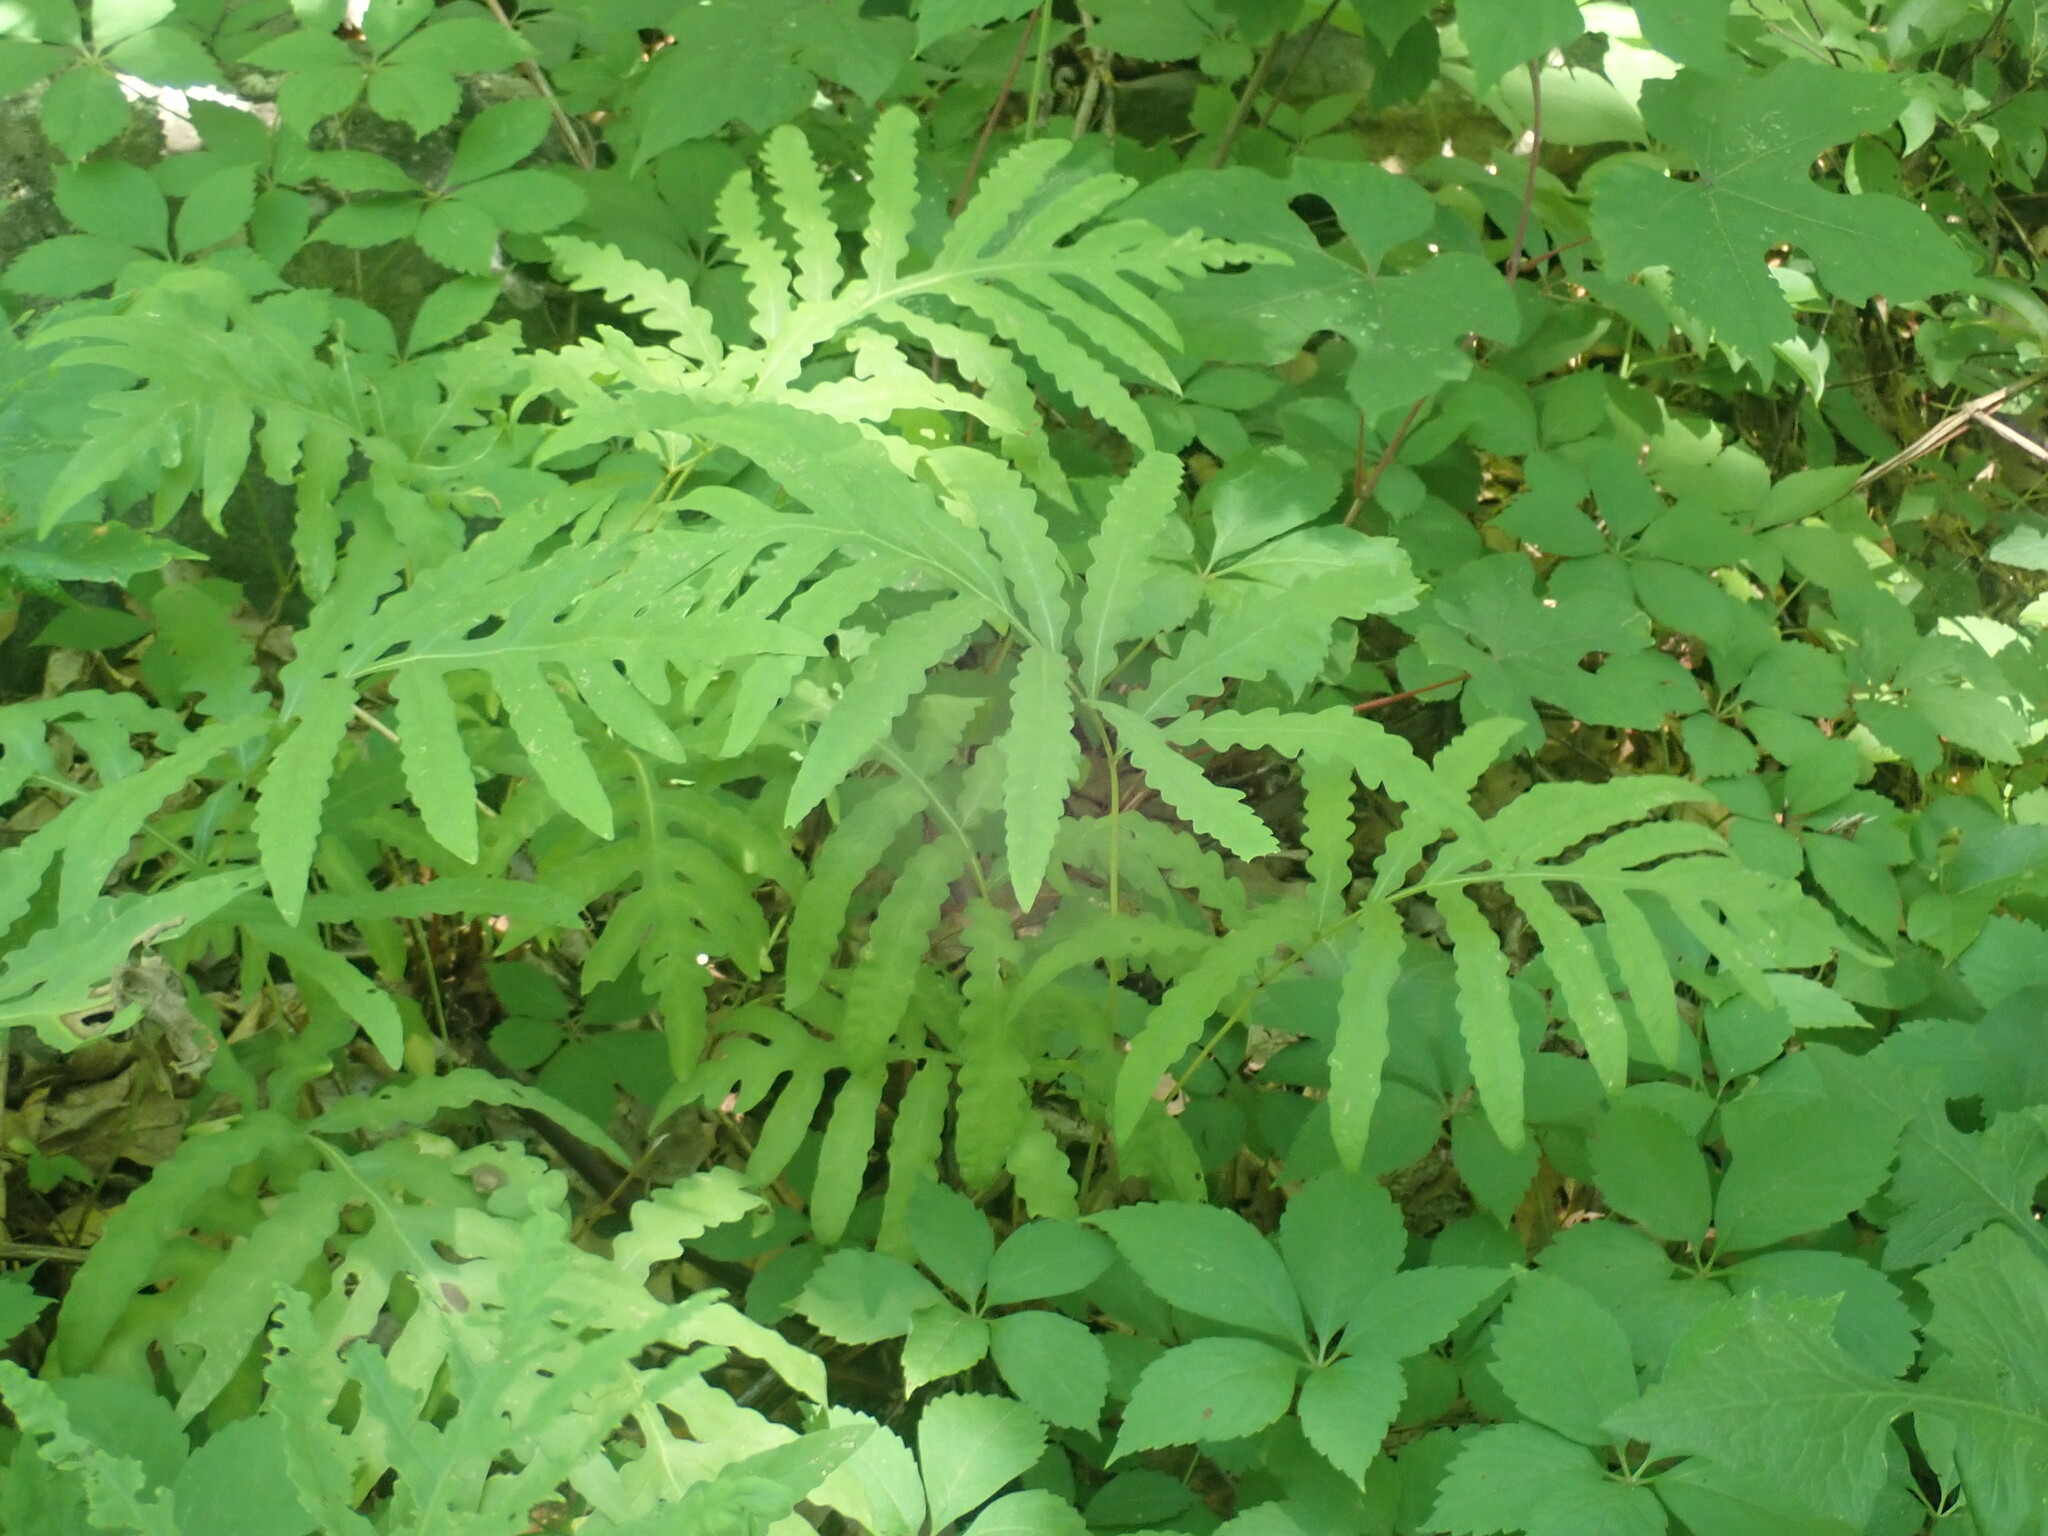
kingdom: Plantae
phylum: Tracheophyta
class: Polypodiopsida
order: Polypodiales
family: Onocleaceae
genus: Onoclea
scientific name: Onoclea sensibilis
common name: Sensitive fern
